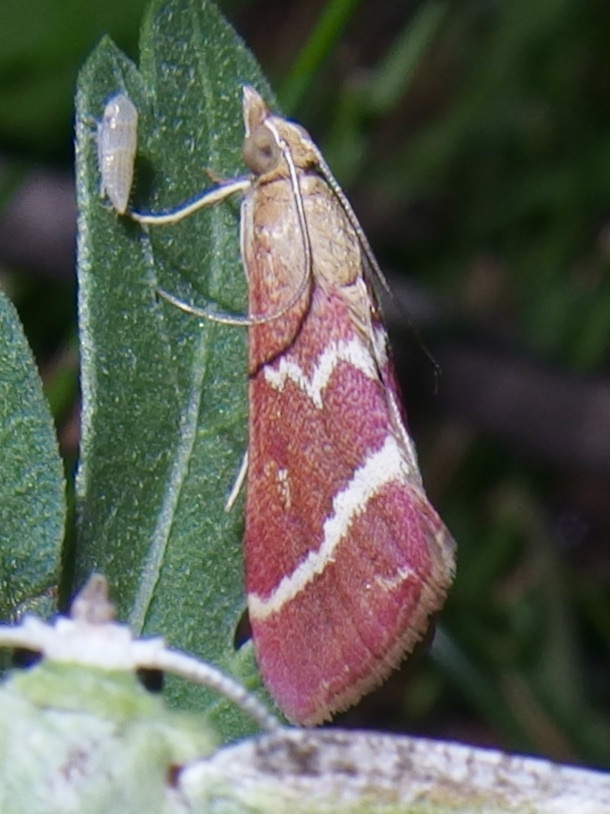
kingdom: Animalia
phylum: Arthropoda
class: Insecta
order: Lepidoptera
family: Crambidae
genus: Pyrausta
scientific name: Pyrausta volupialis
